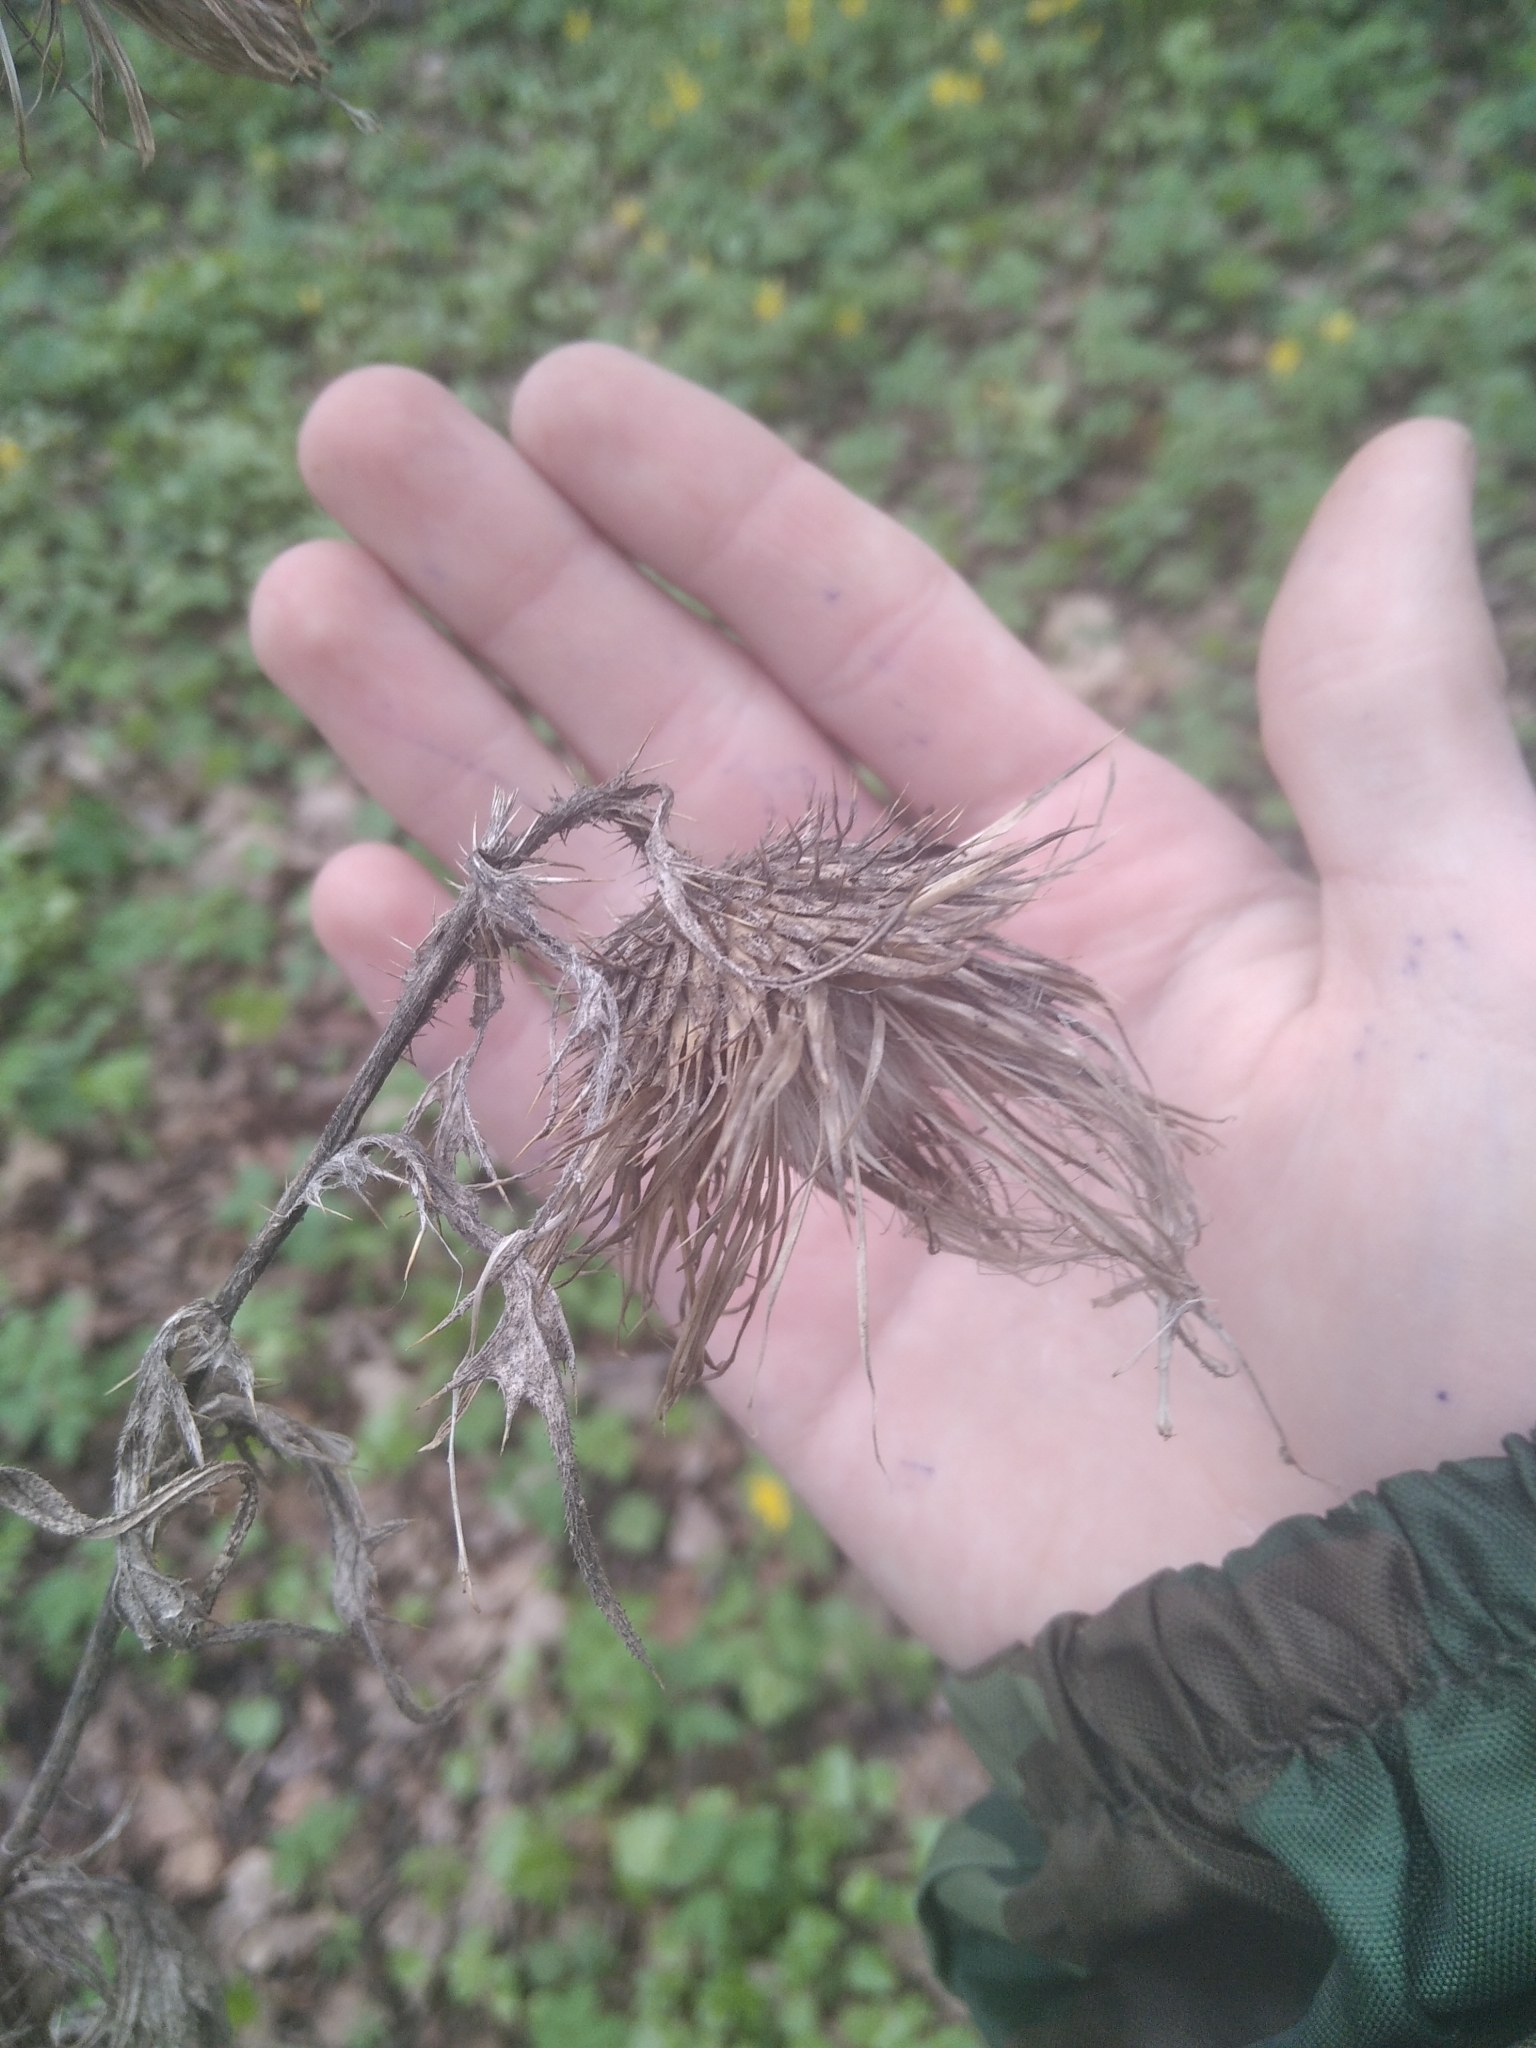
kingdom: Plantae
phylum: Tracheophyta
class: Magnoliopsida
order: Asterales
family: Asteraceae
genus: Cirsium
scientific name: Cirsium vulgare
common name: Bull thistle
